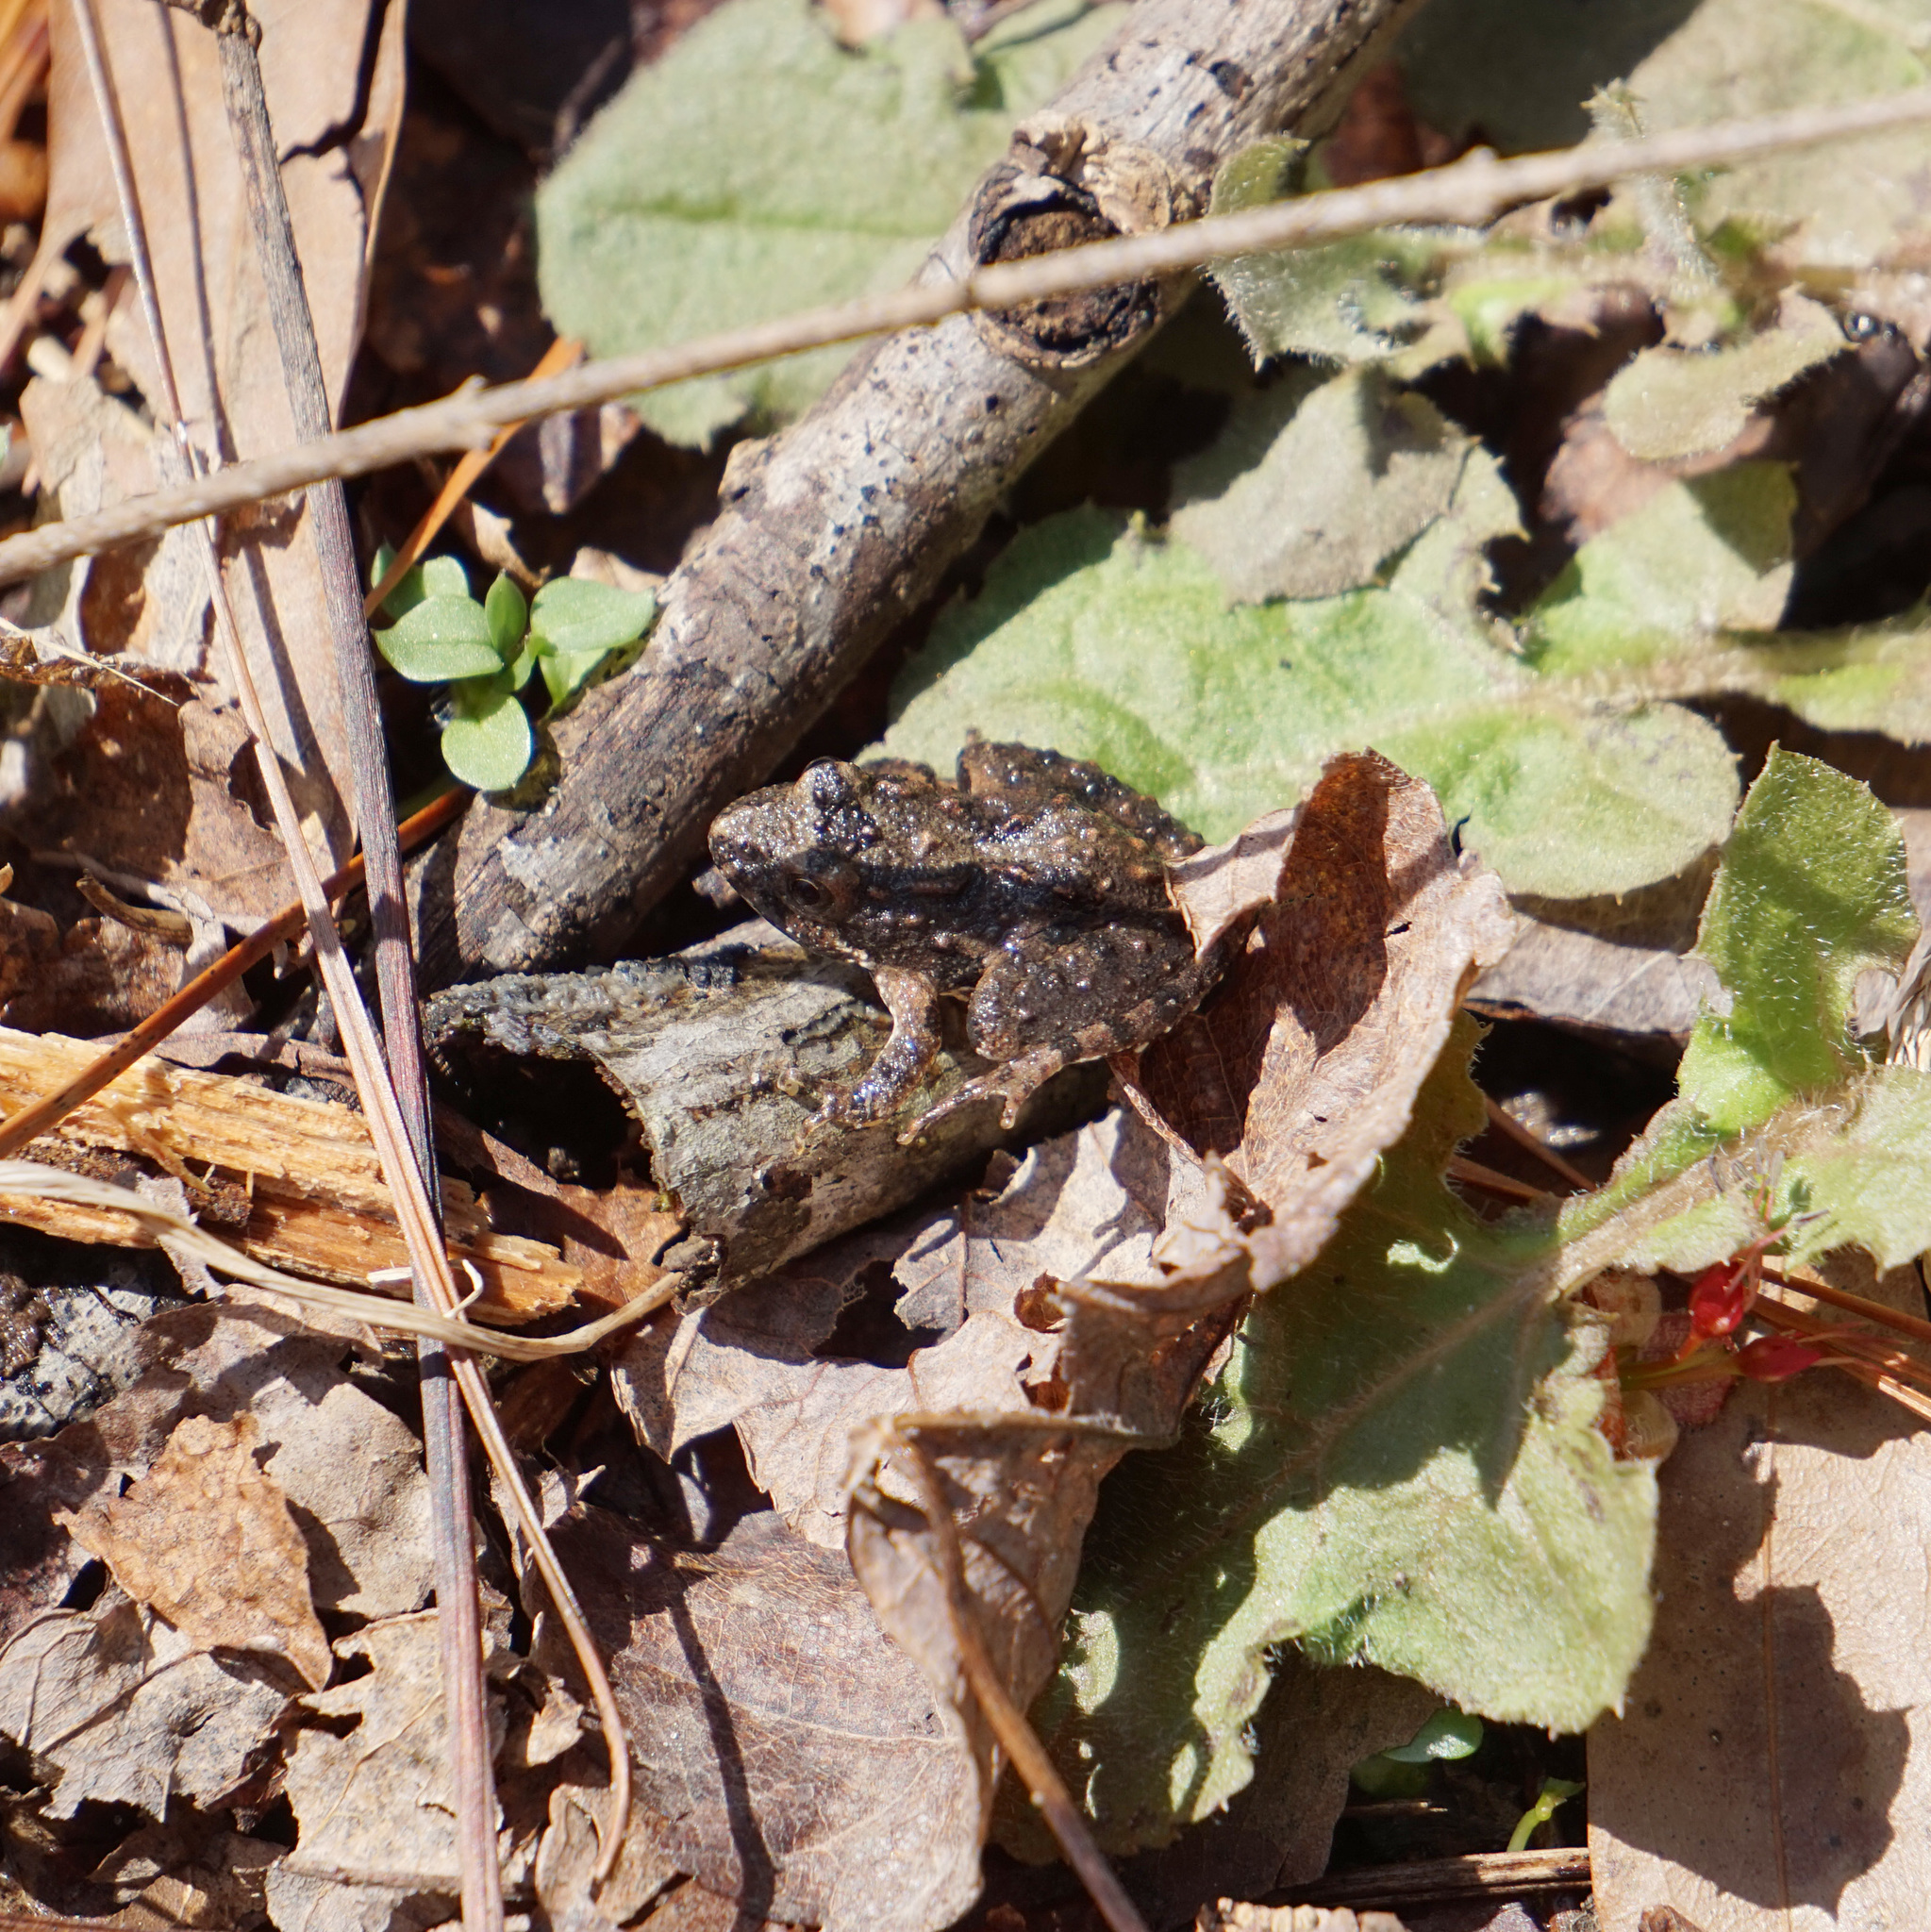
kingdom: Animalia
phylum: Chordata
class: Amphibia
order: Anura
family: Hylidae
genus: Acris
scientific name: Acris crepitans
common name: Northern cricket frog
